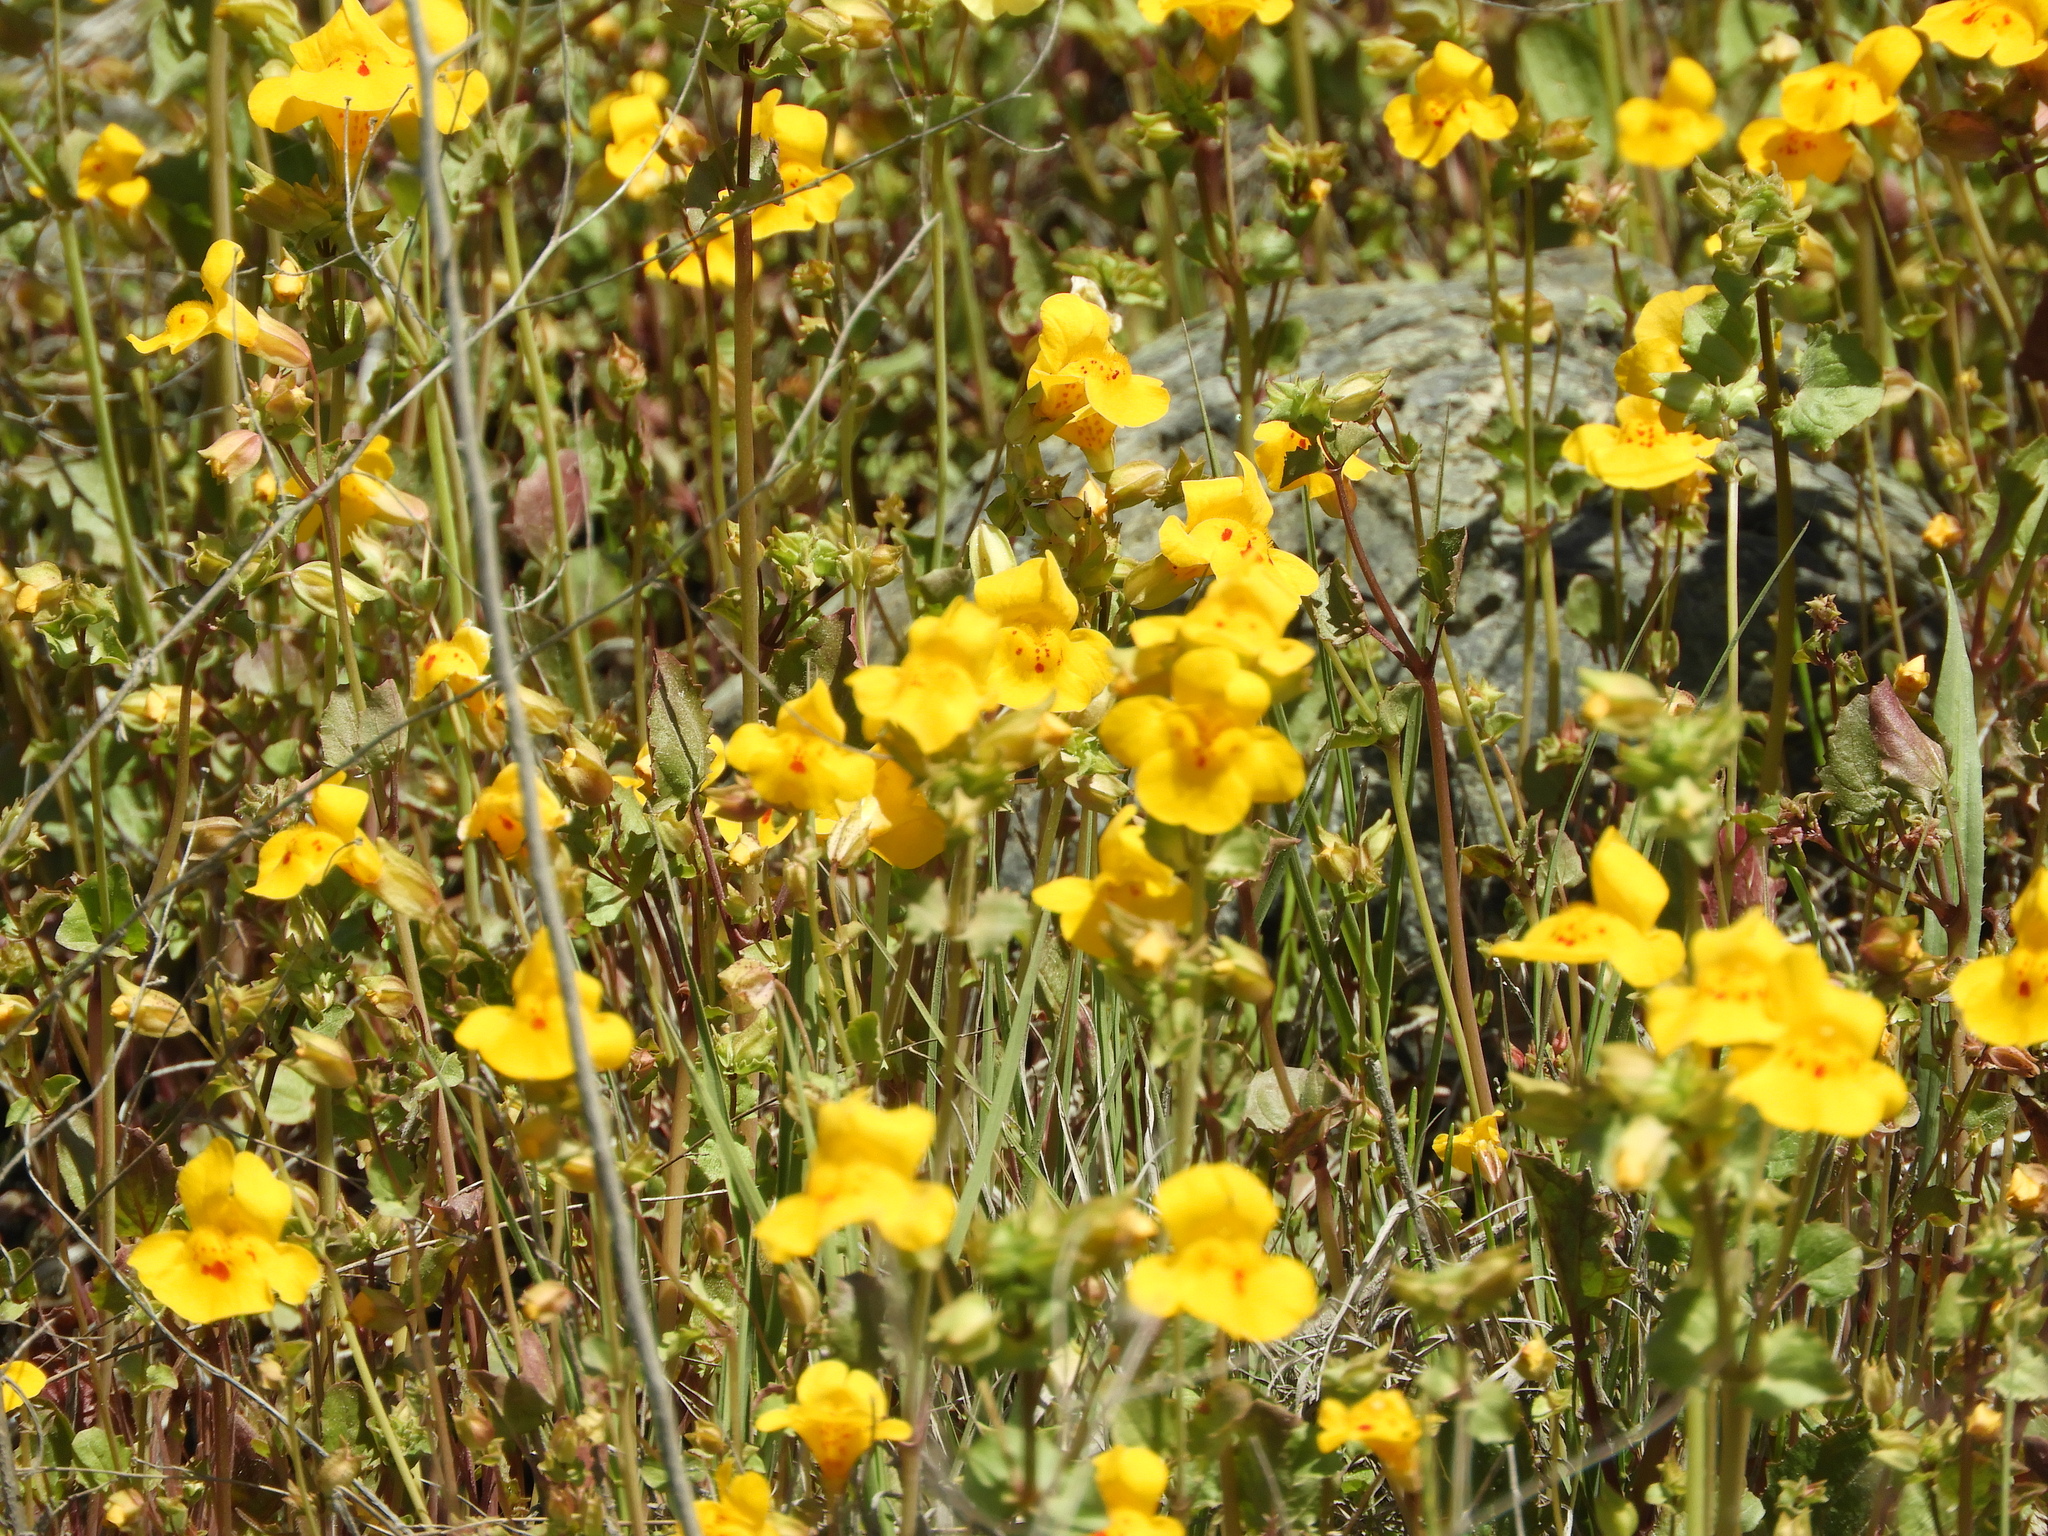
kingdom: Plantae
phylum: Tracheophyta
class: Magnoliopsida
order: Lamiales
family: Phrymaceae
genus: Erythranthe
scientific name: Erythranthe guttata
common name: Monkeyflower
